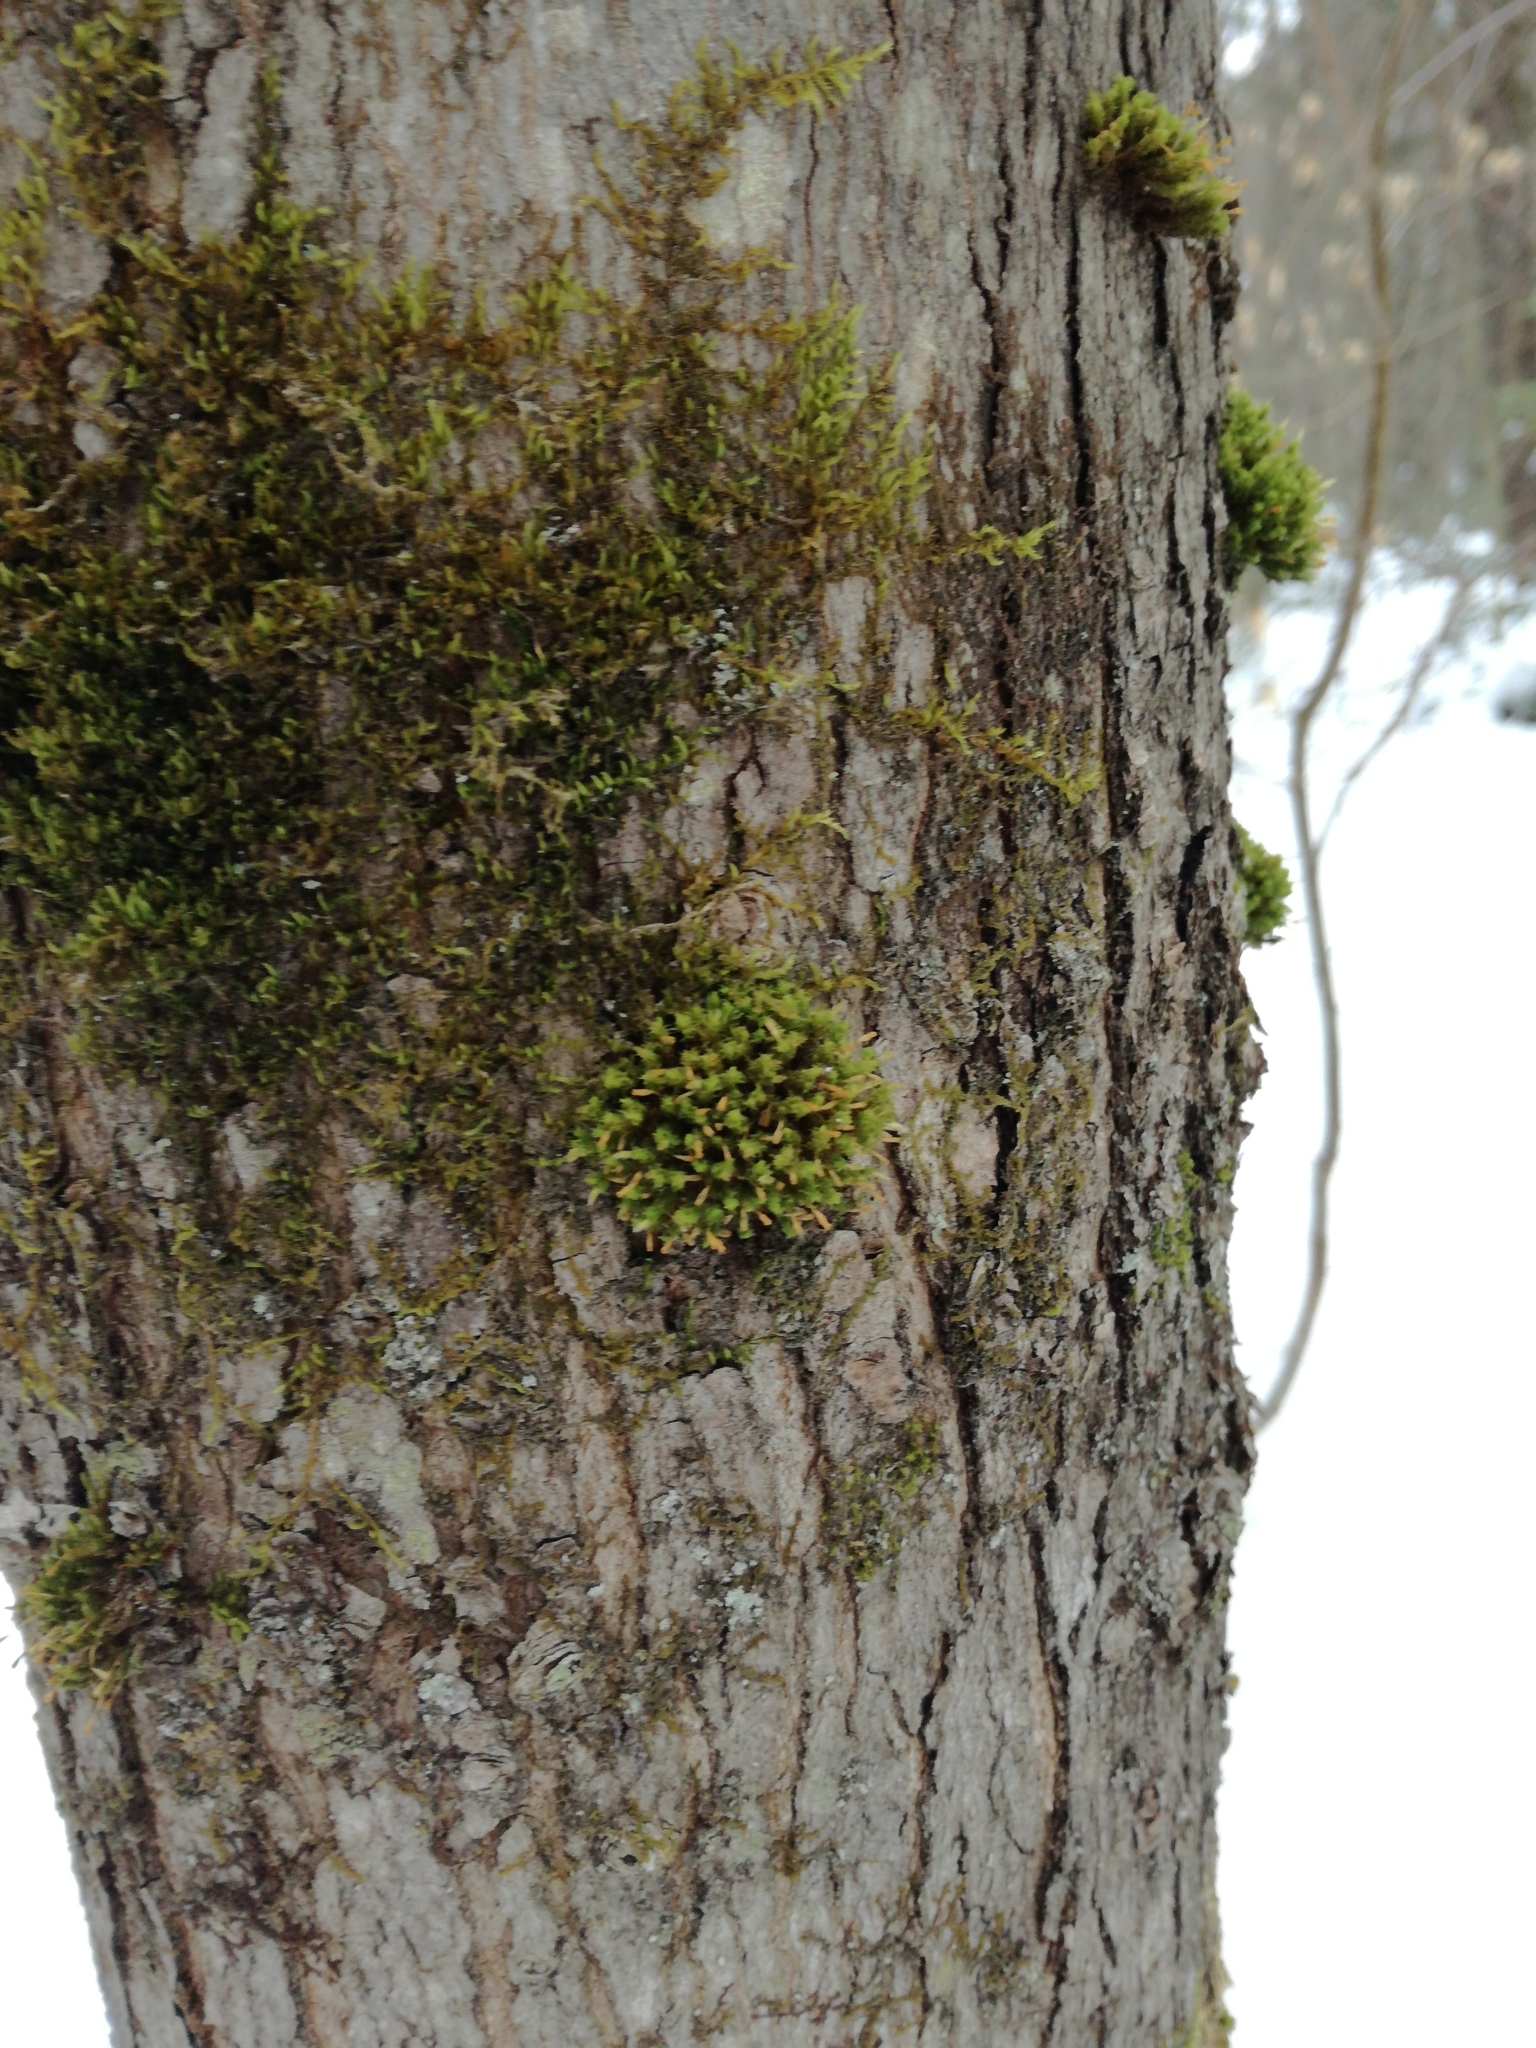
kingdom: Plantae
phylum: Bryophyta
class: Bryopsida
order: Orthotrichales
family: Orthotrichaceae
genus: Ulota
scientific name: Ulota crispa
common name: Crisped pincushion moss
